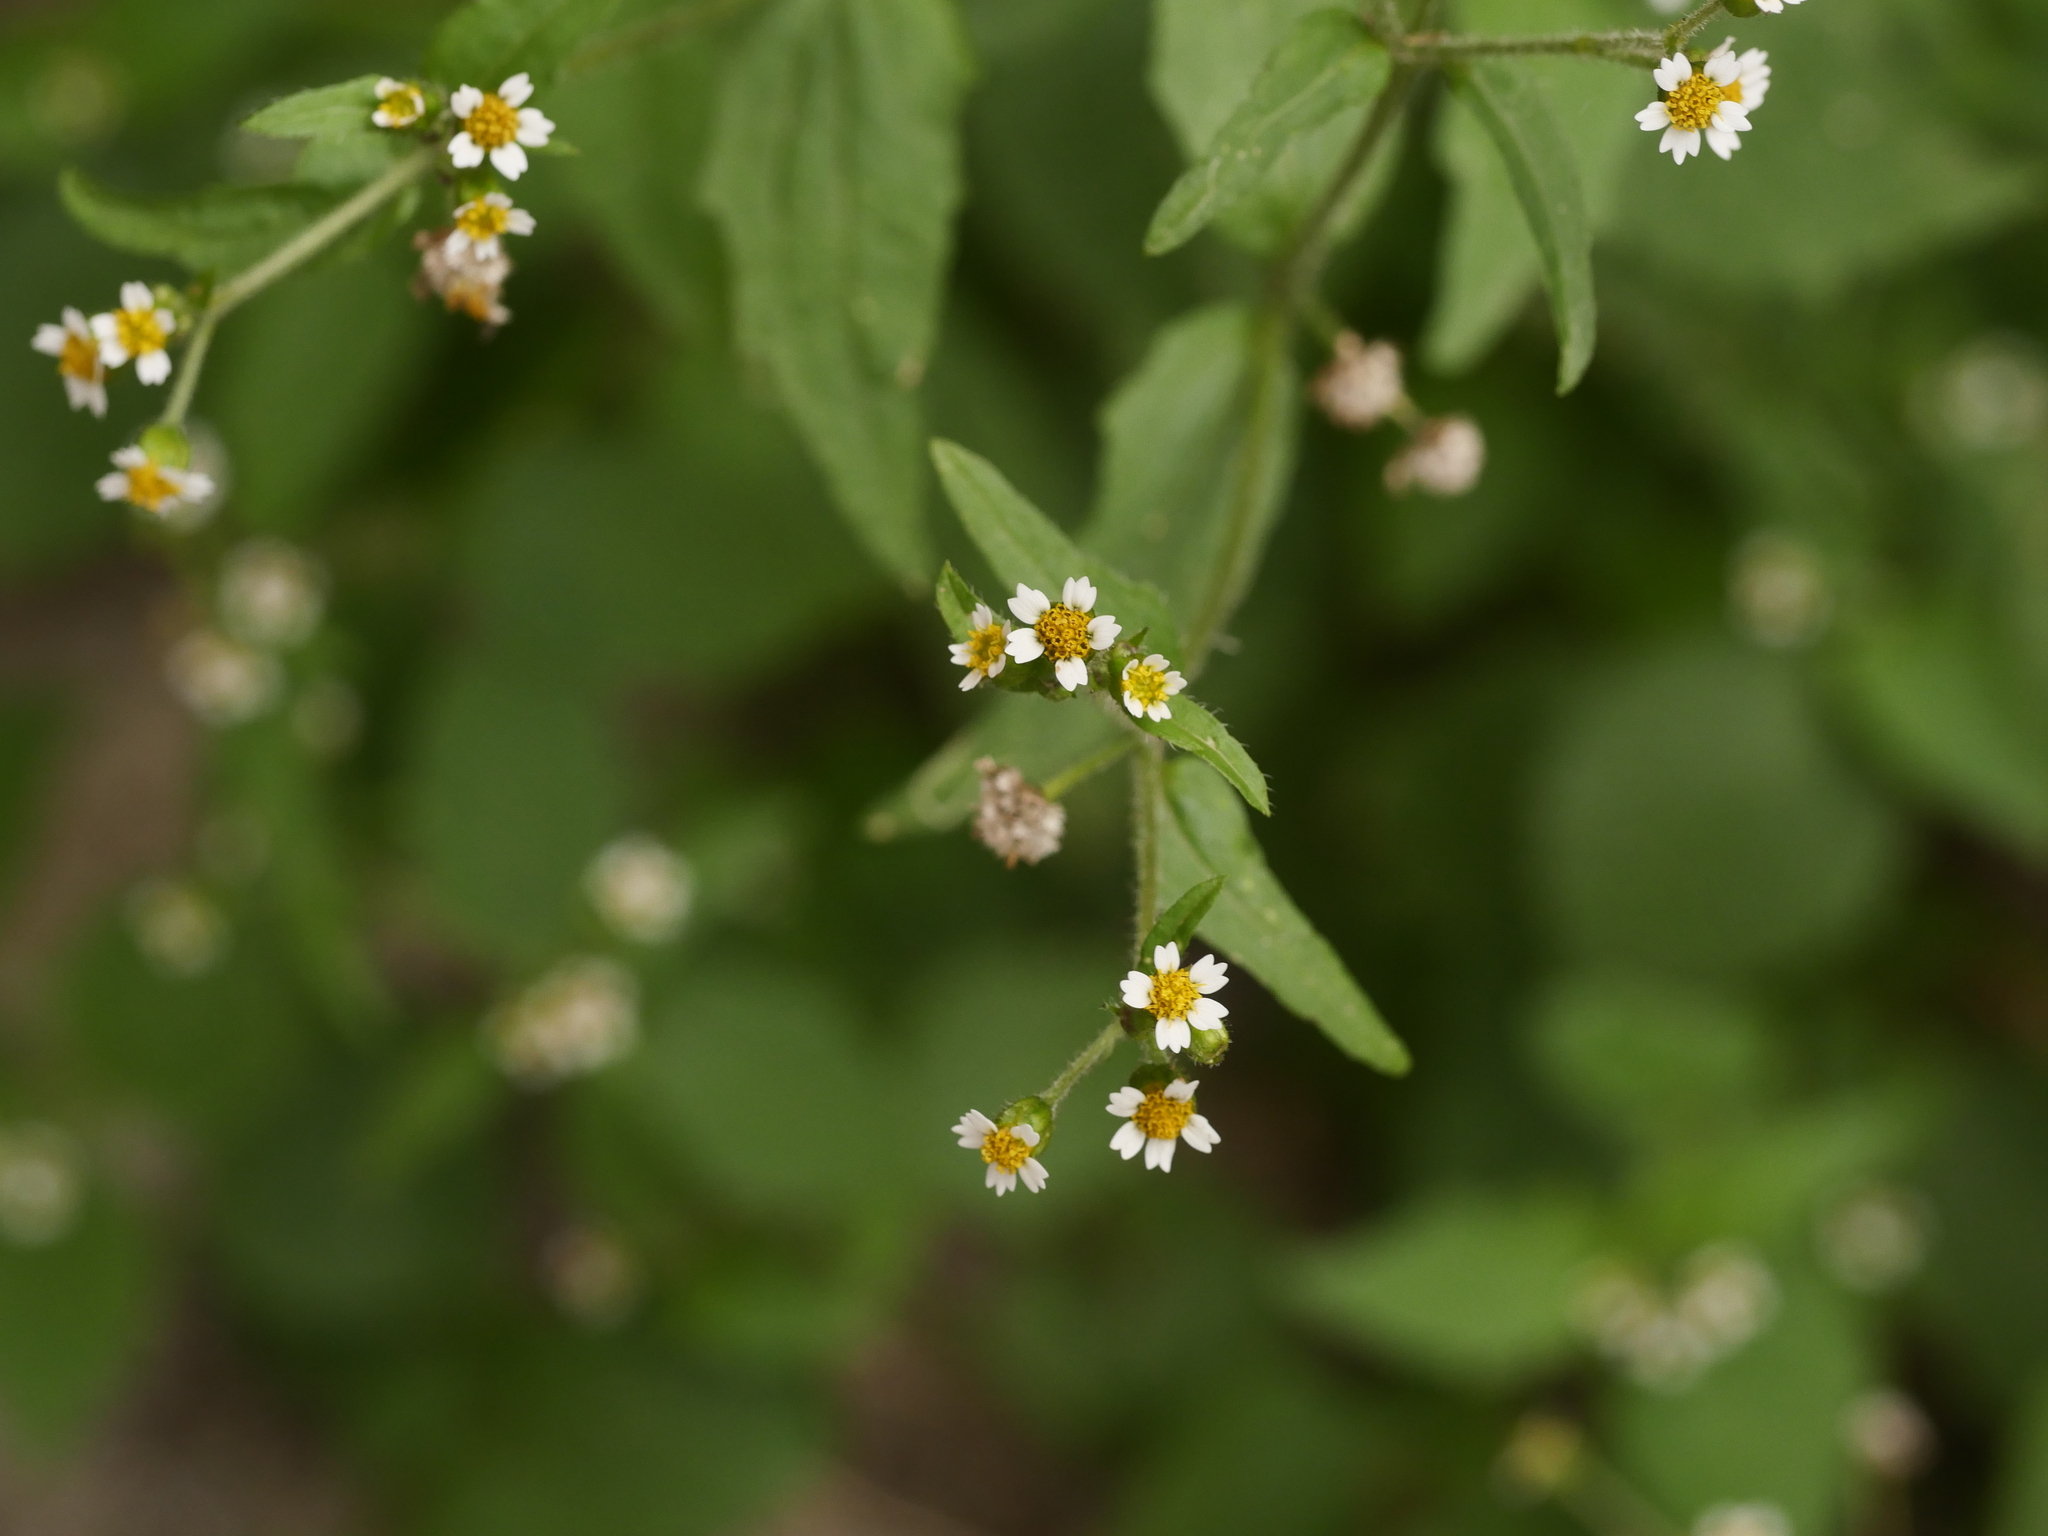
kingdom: Plantae
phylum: Tracheophyta
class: Magnoliopsida
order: Asterales
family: Asteraceae
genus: Galinsoga
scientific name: Galinsoga quadriradiata
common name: Shaggy soldier
